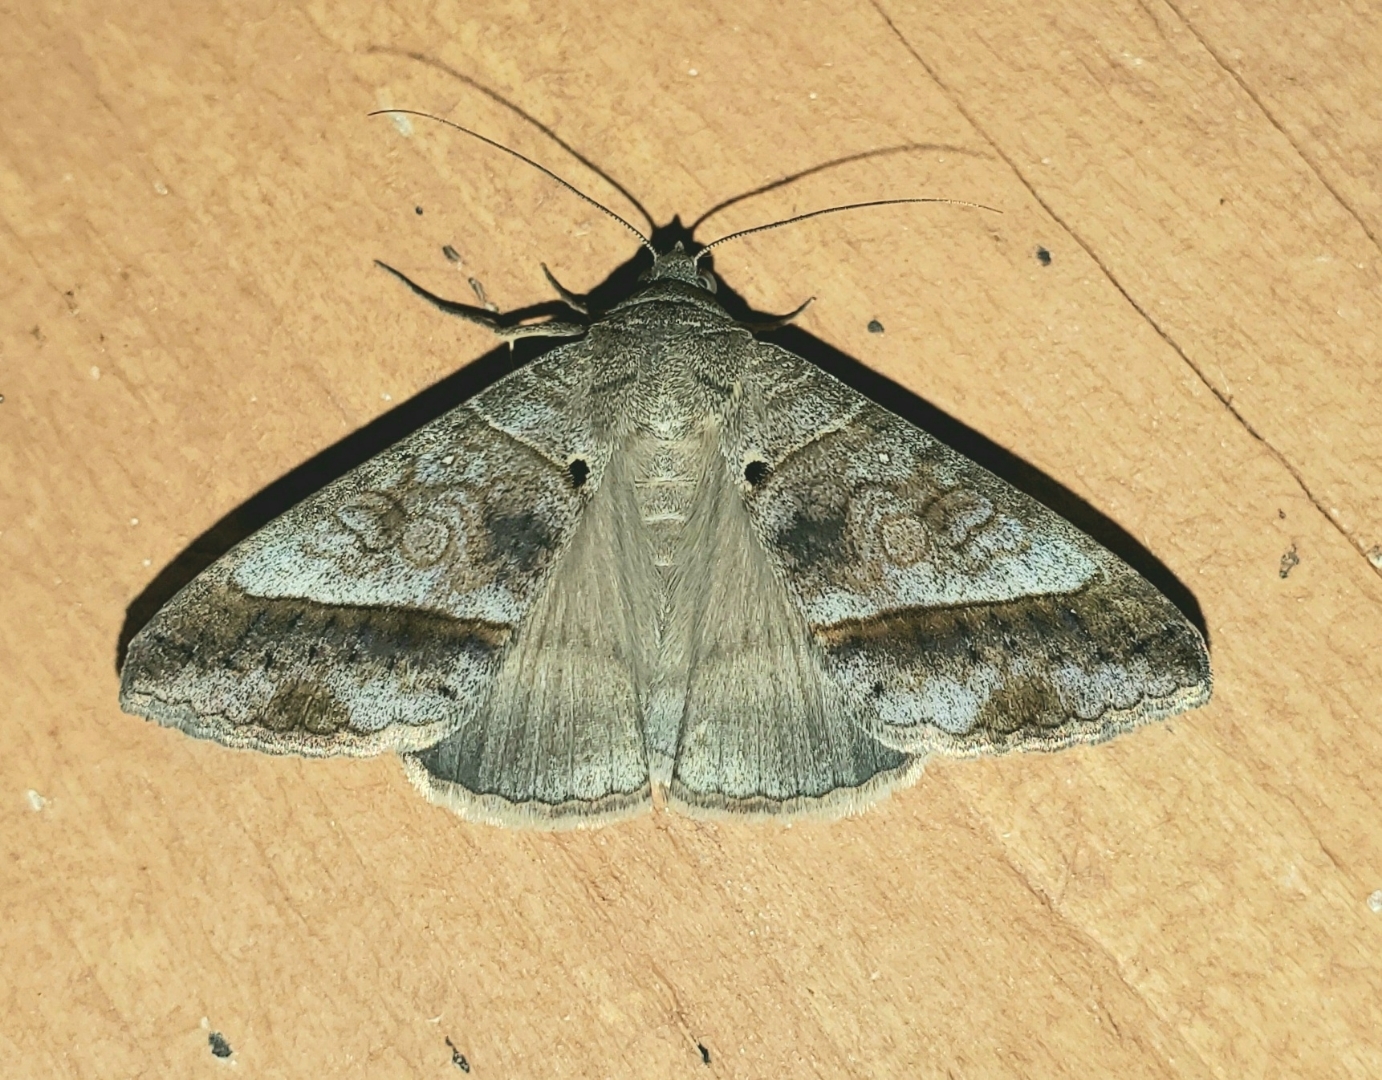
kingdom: Animalia
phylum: Arthropoda
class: Insecta
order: Lepidoptera
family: Erebidae
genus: Mocis
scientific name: Mocis latipes
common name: Striped grass looper
